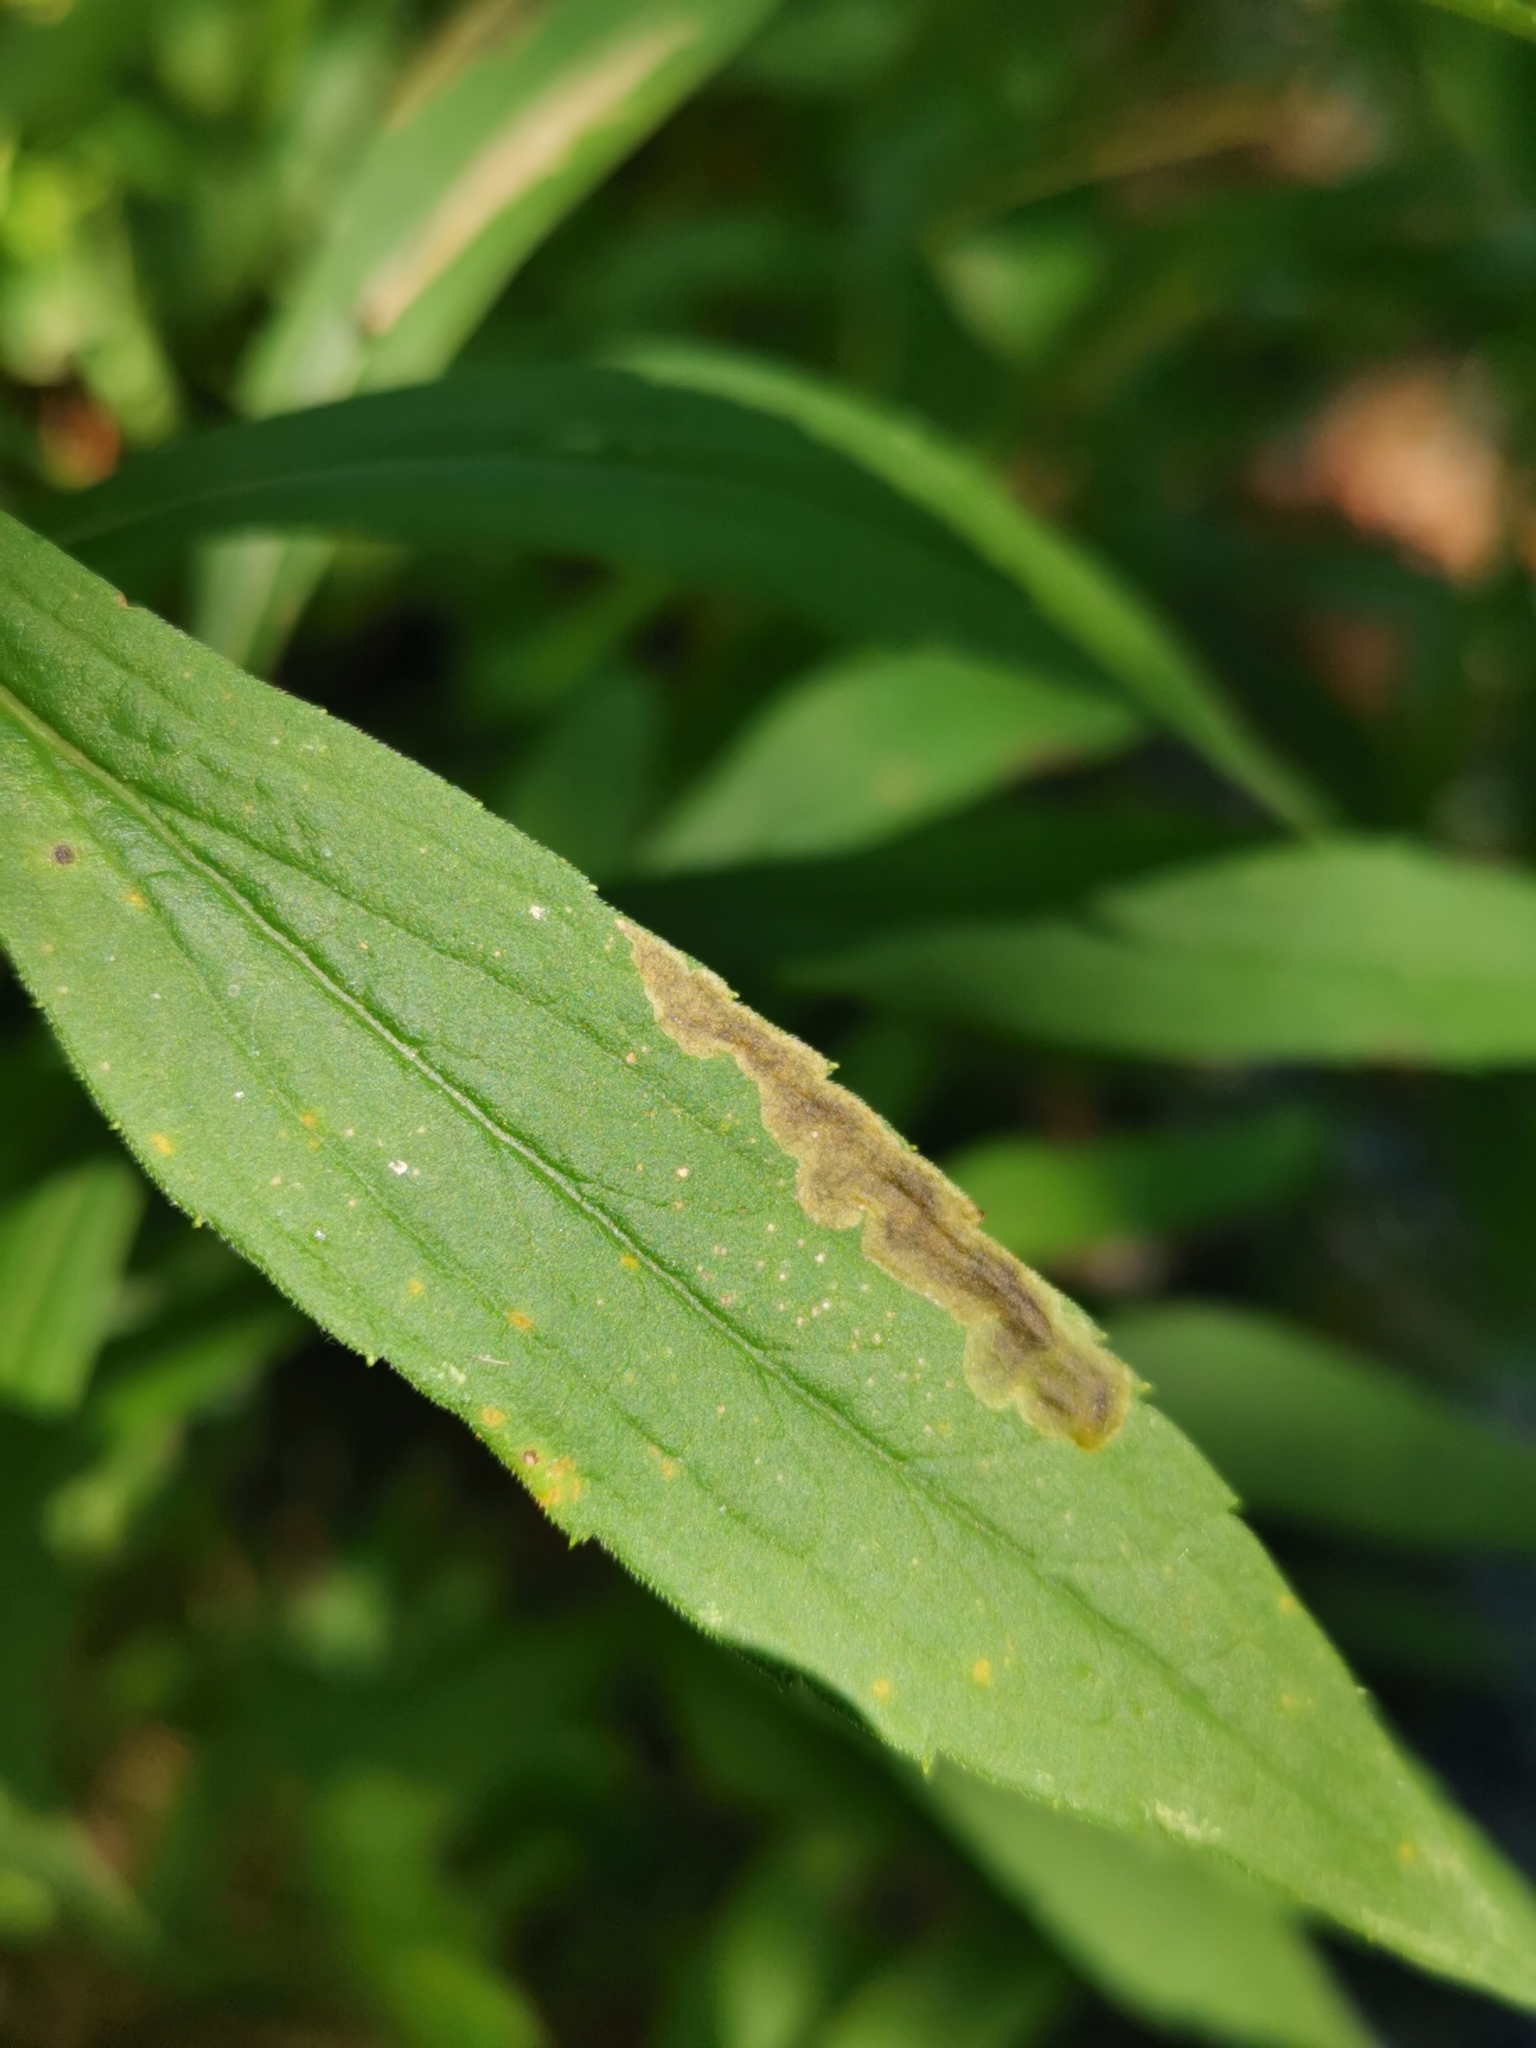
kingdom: Animalia
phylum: Arthropoda
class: Insecta
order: Diptera
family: Agromyzidae
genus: Nemorimyza
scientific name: Nemorimyza posticata
